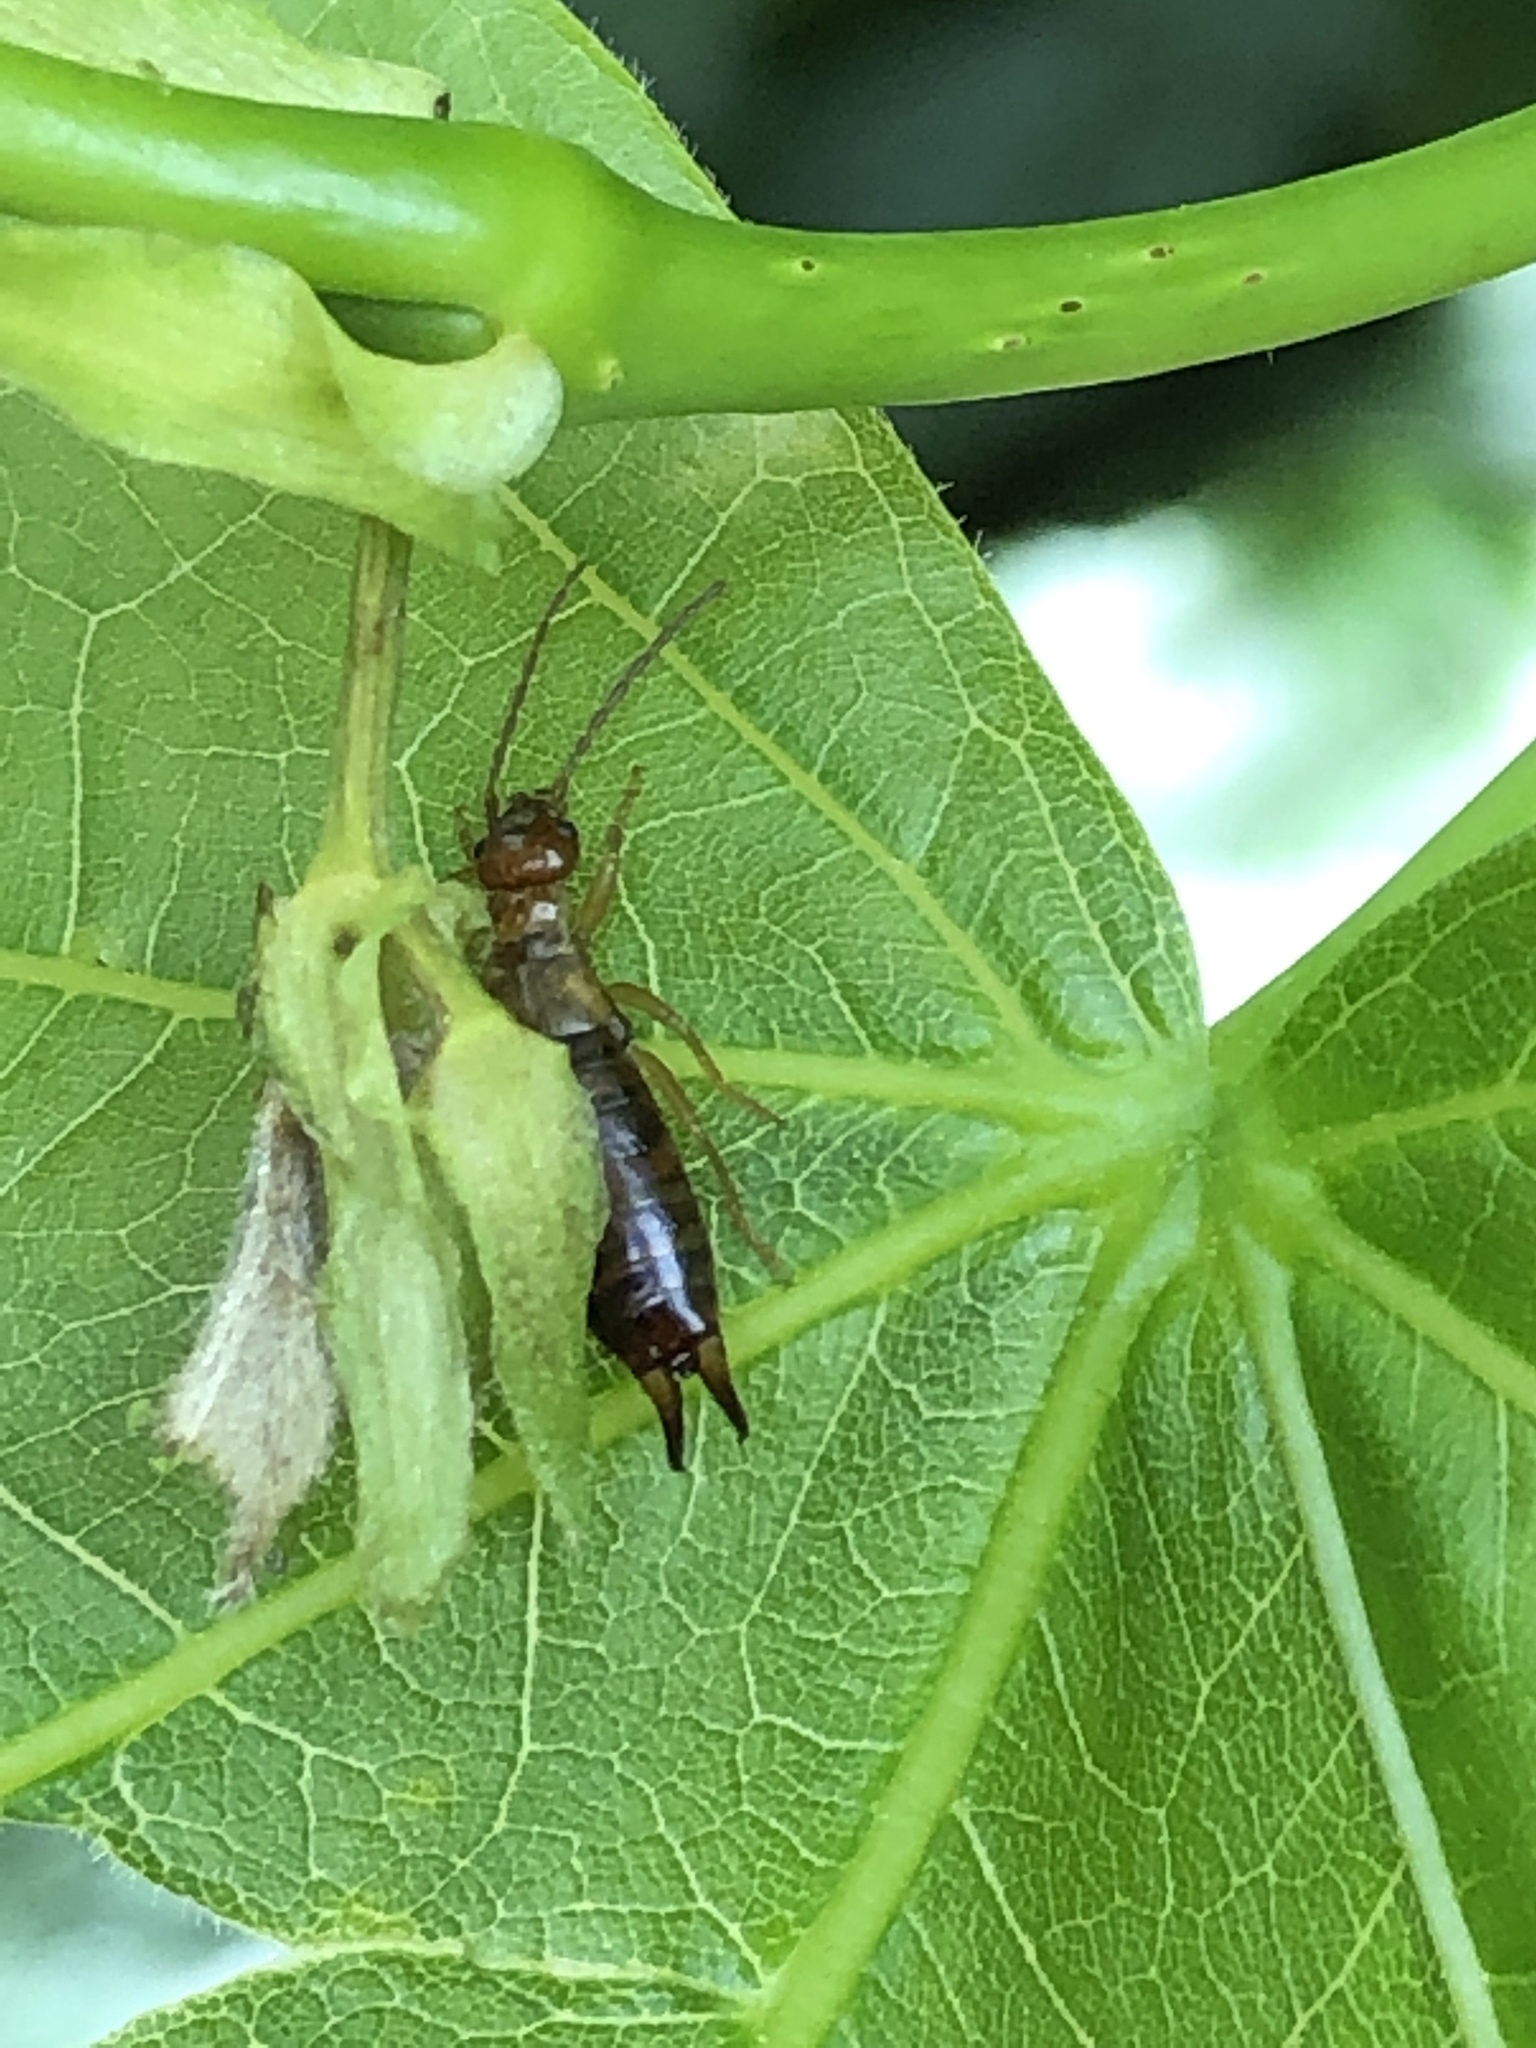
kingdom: Animalia
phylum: Arthropoda
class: Insecta
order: Dermaptera
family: Forficulidae
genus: Apterygida
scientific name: Apterygida albipennis
